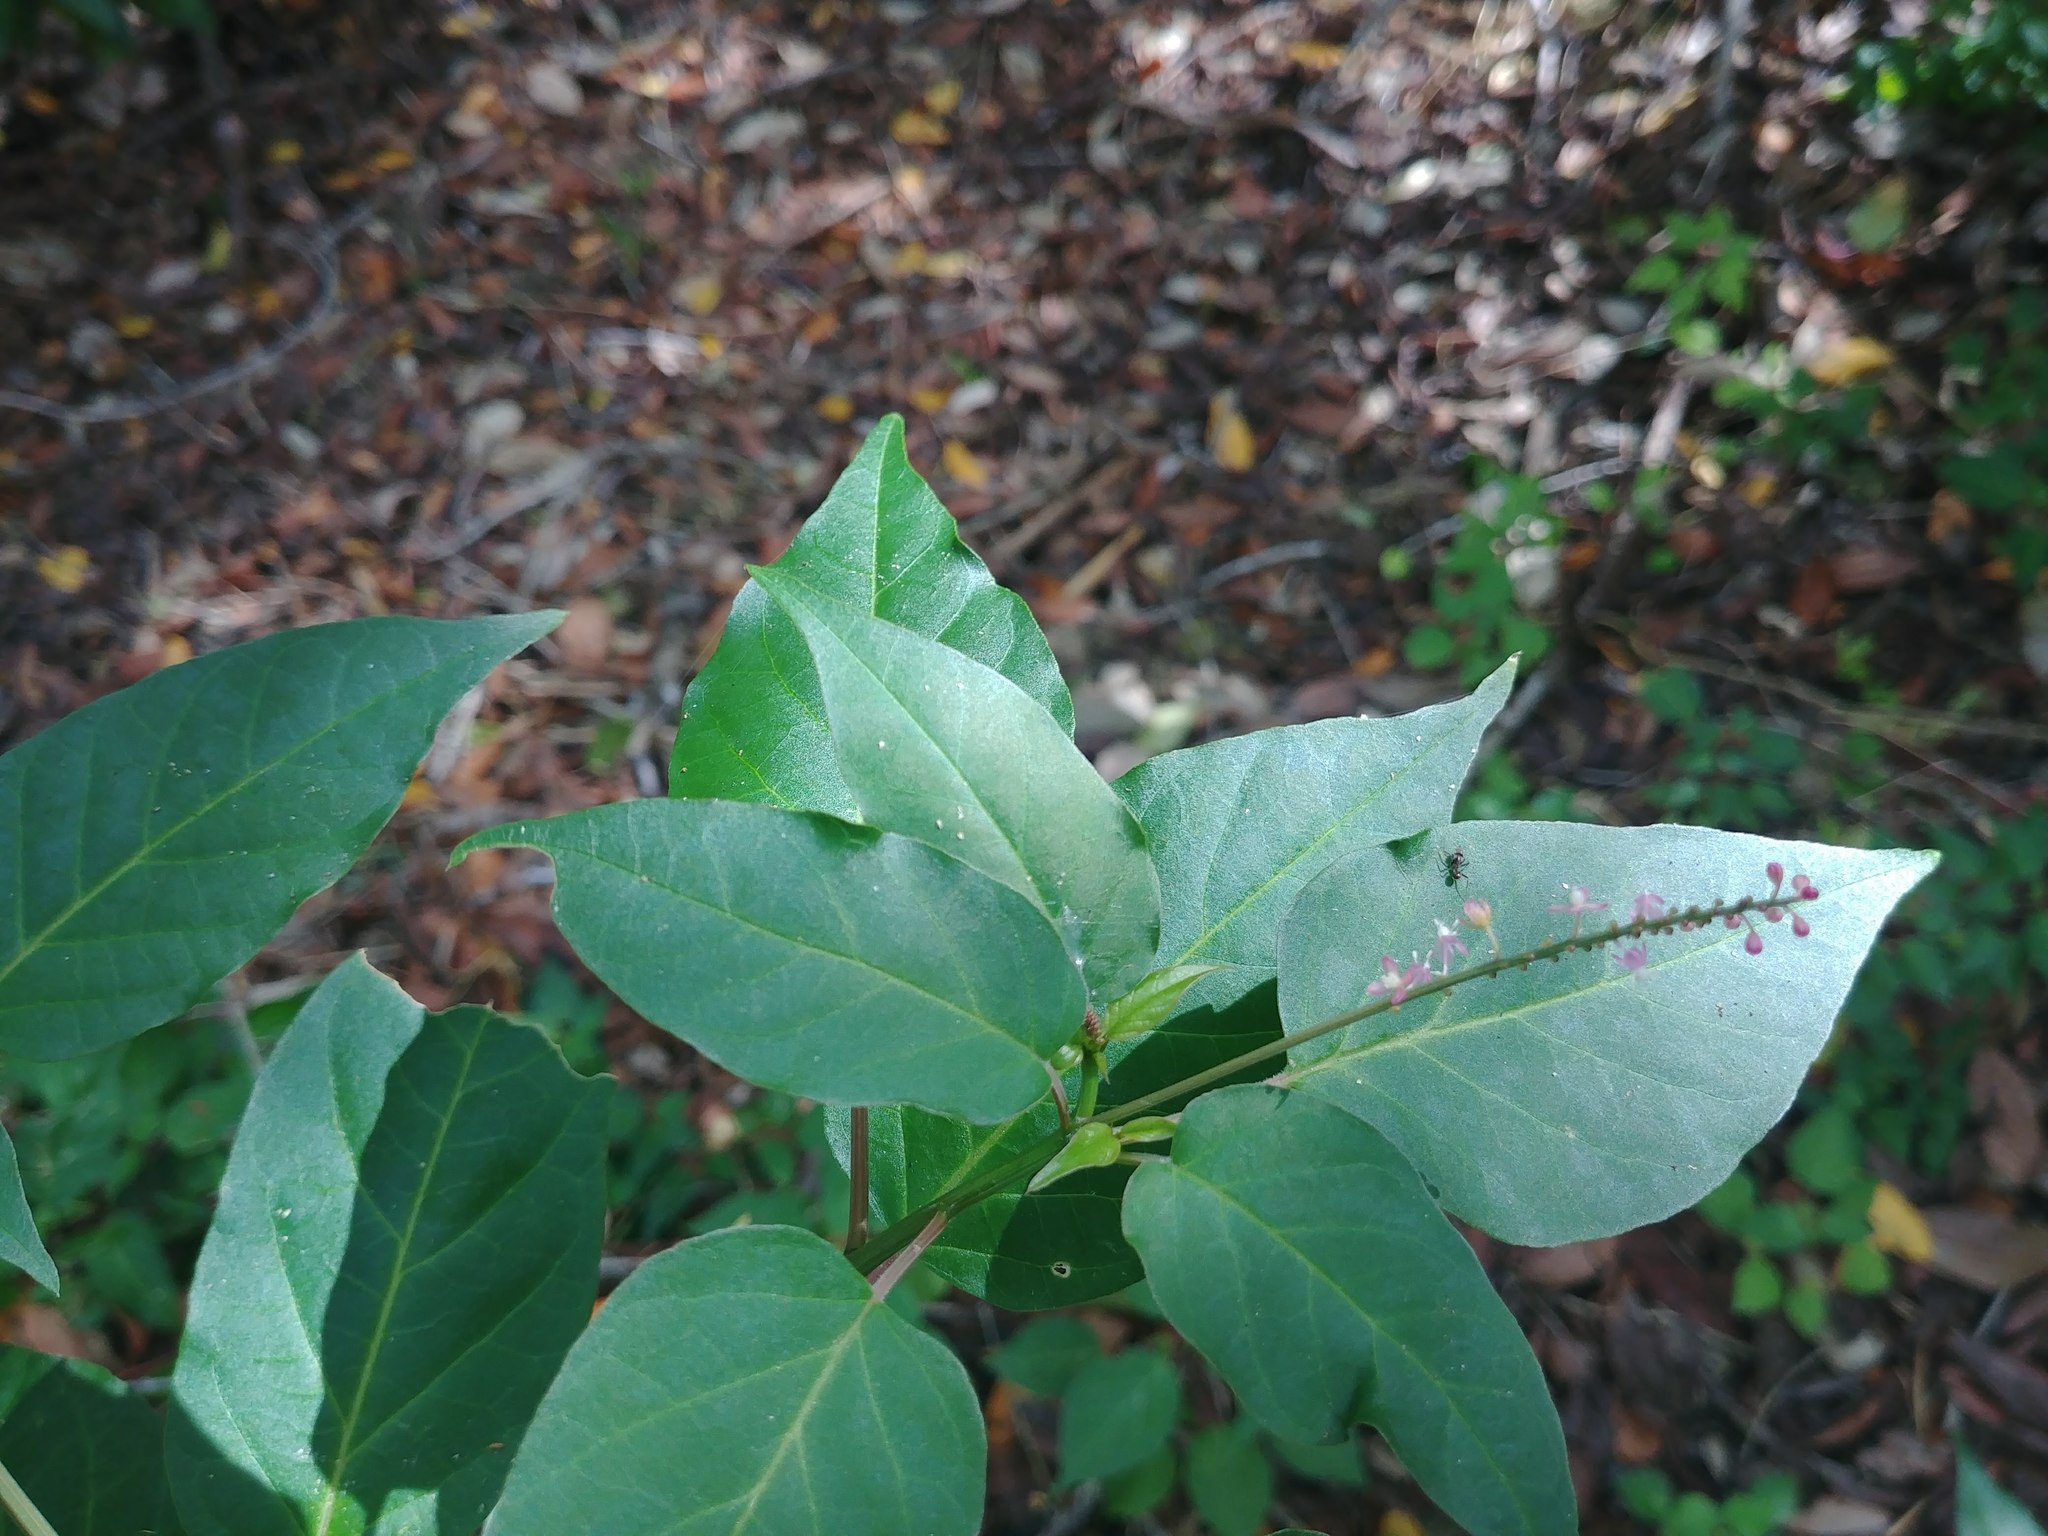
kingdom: Plantae
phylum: Tracheophyta
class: Magnoliopsida
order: Caryophyllales
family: Phytolaccaceae
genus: Rivina
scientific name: Rivina humilis
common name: Rougeplant
